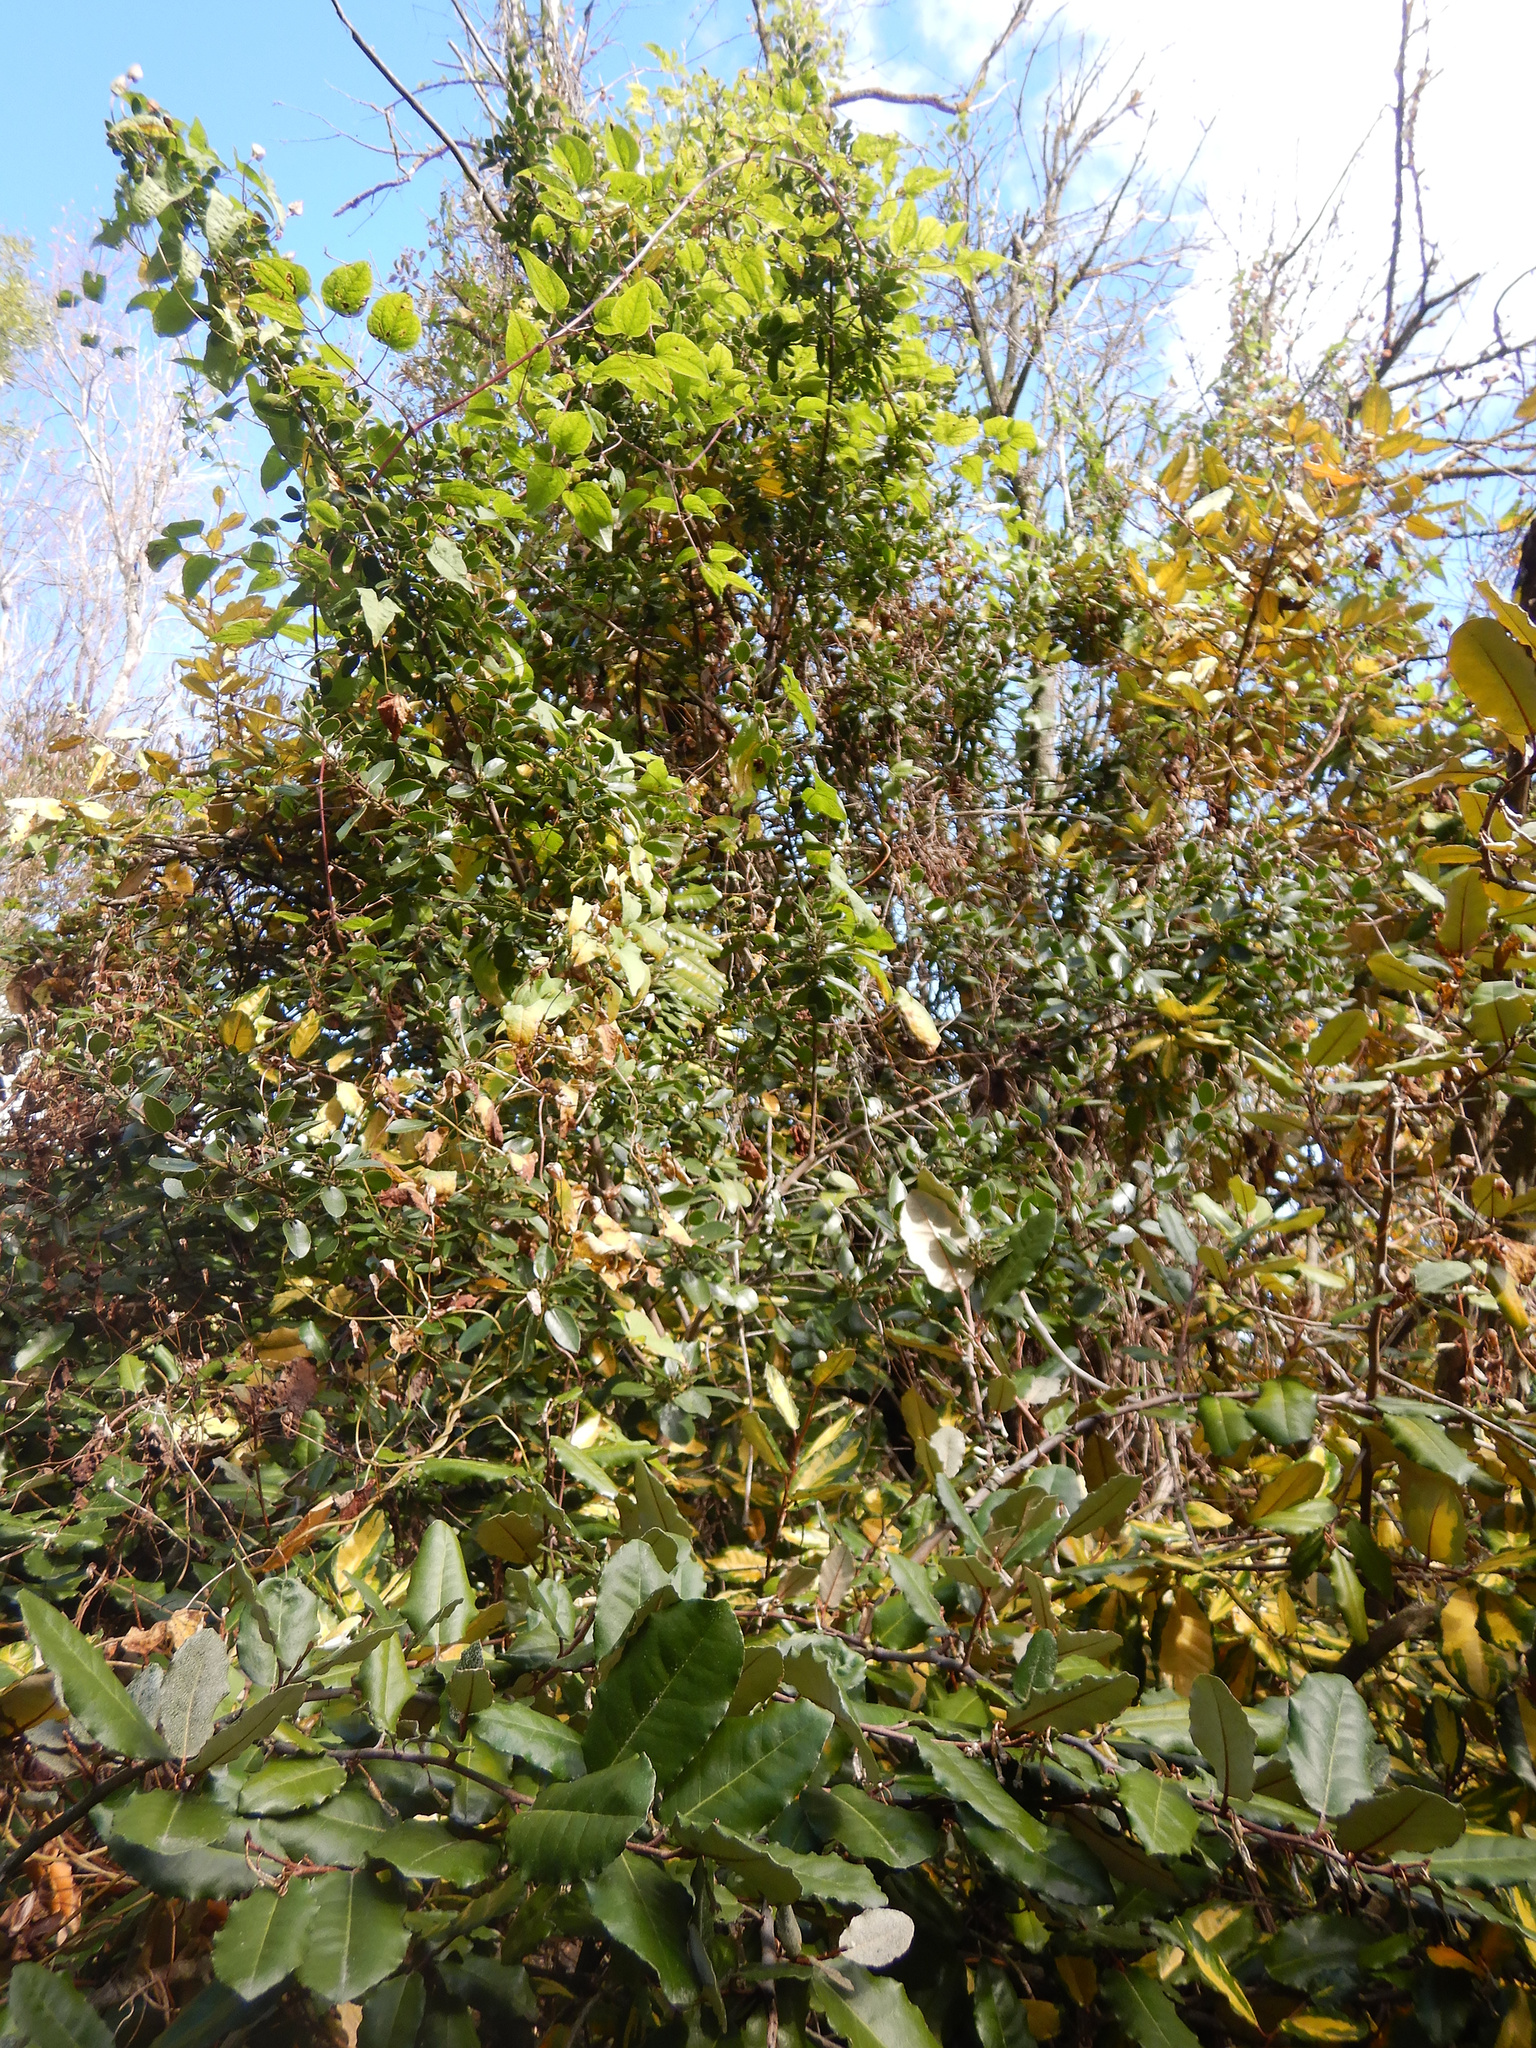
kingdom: Plantae
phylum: Tracheophyta
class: Magnoliopsida
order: Ranunculales
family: Ranunculaceae
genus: Clematis
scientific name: Clematis vitalba
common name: Evergreen clematis
